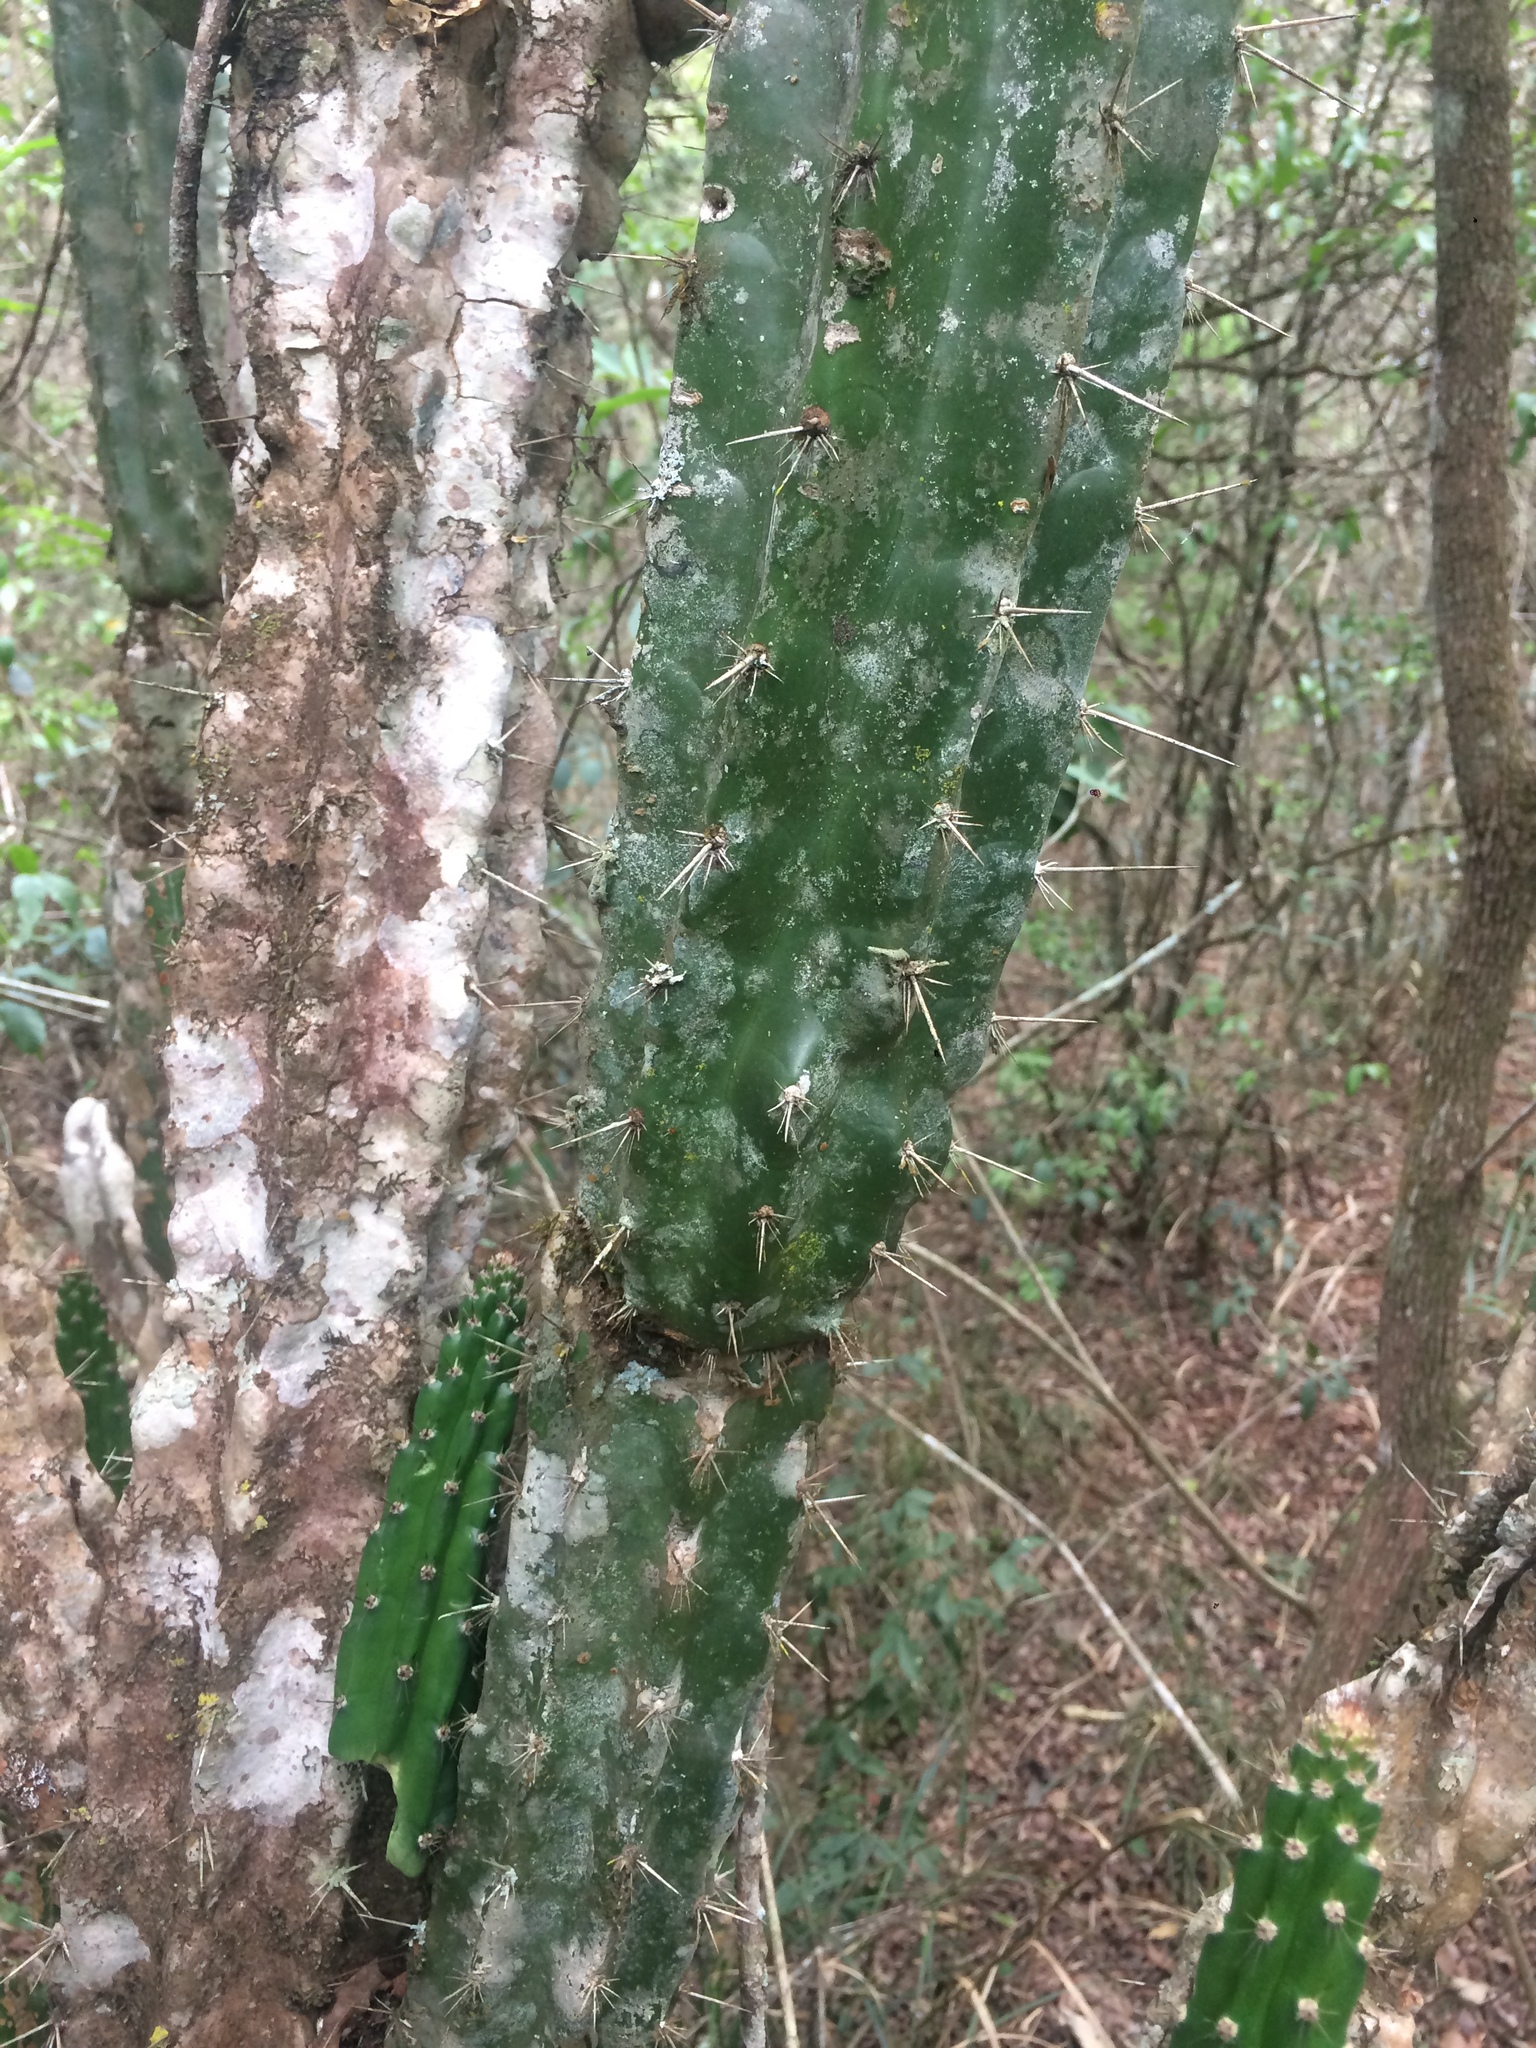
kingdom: Plantae
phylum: Tracheophyta
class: Magnoliopsida
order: Caryophyllales
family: Cactaceae
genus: Praecereus
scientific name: Praecereus euchlorus
